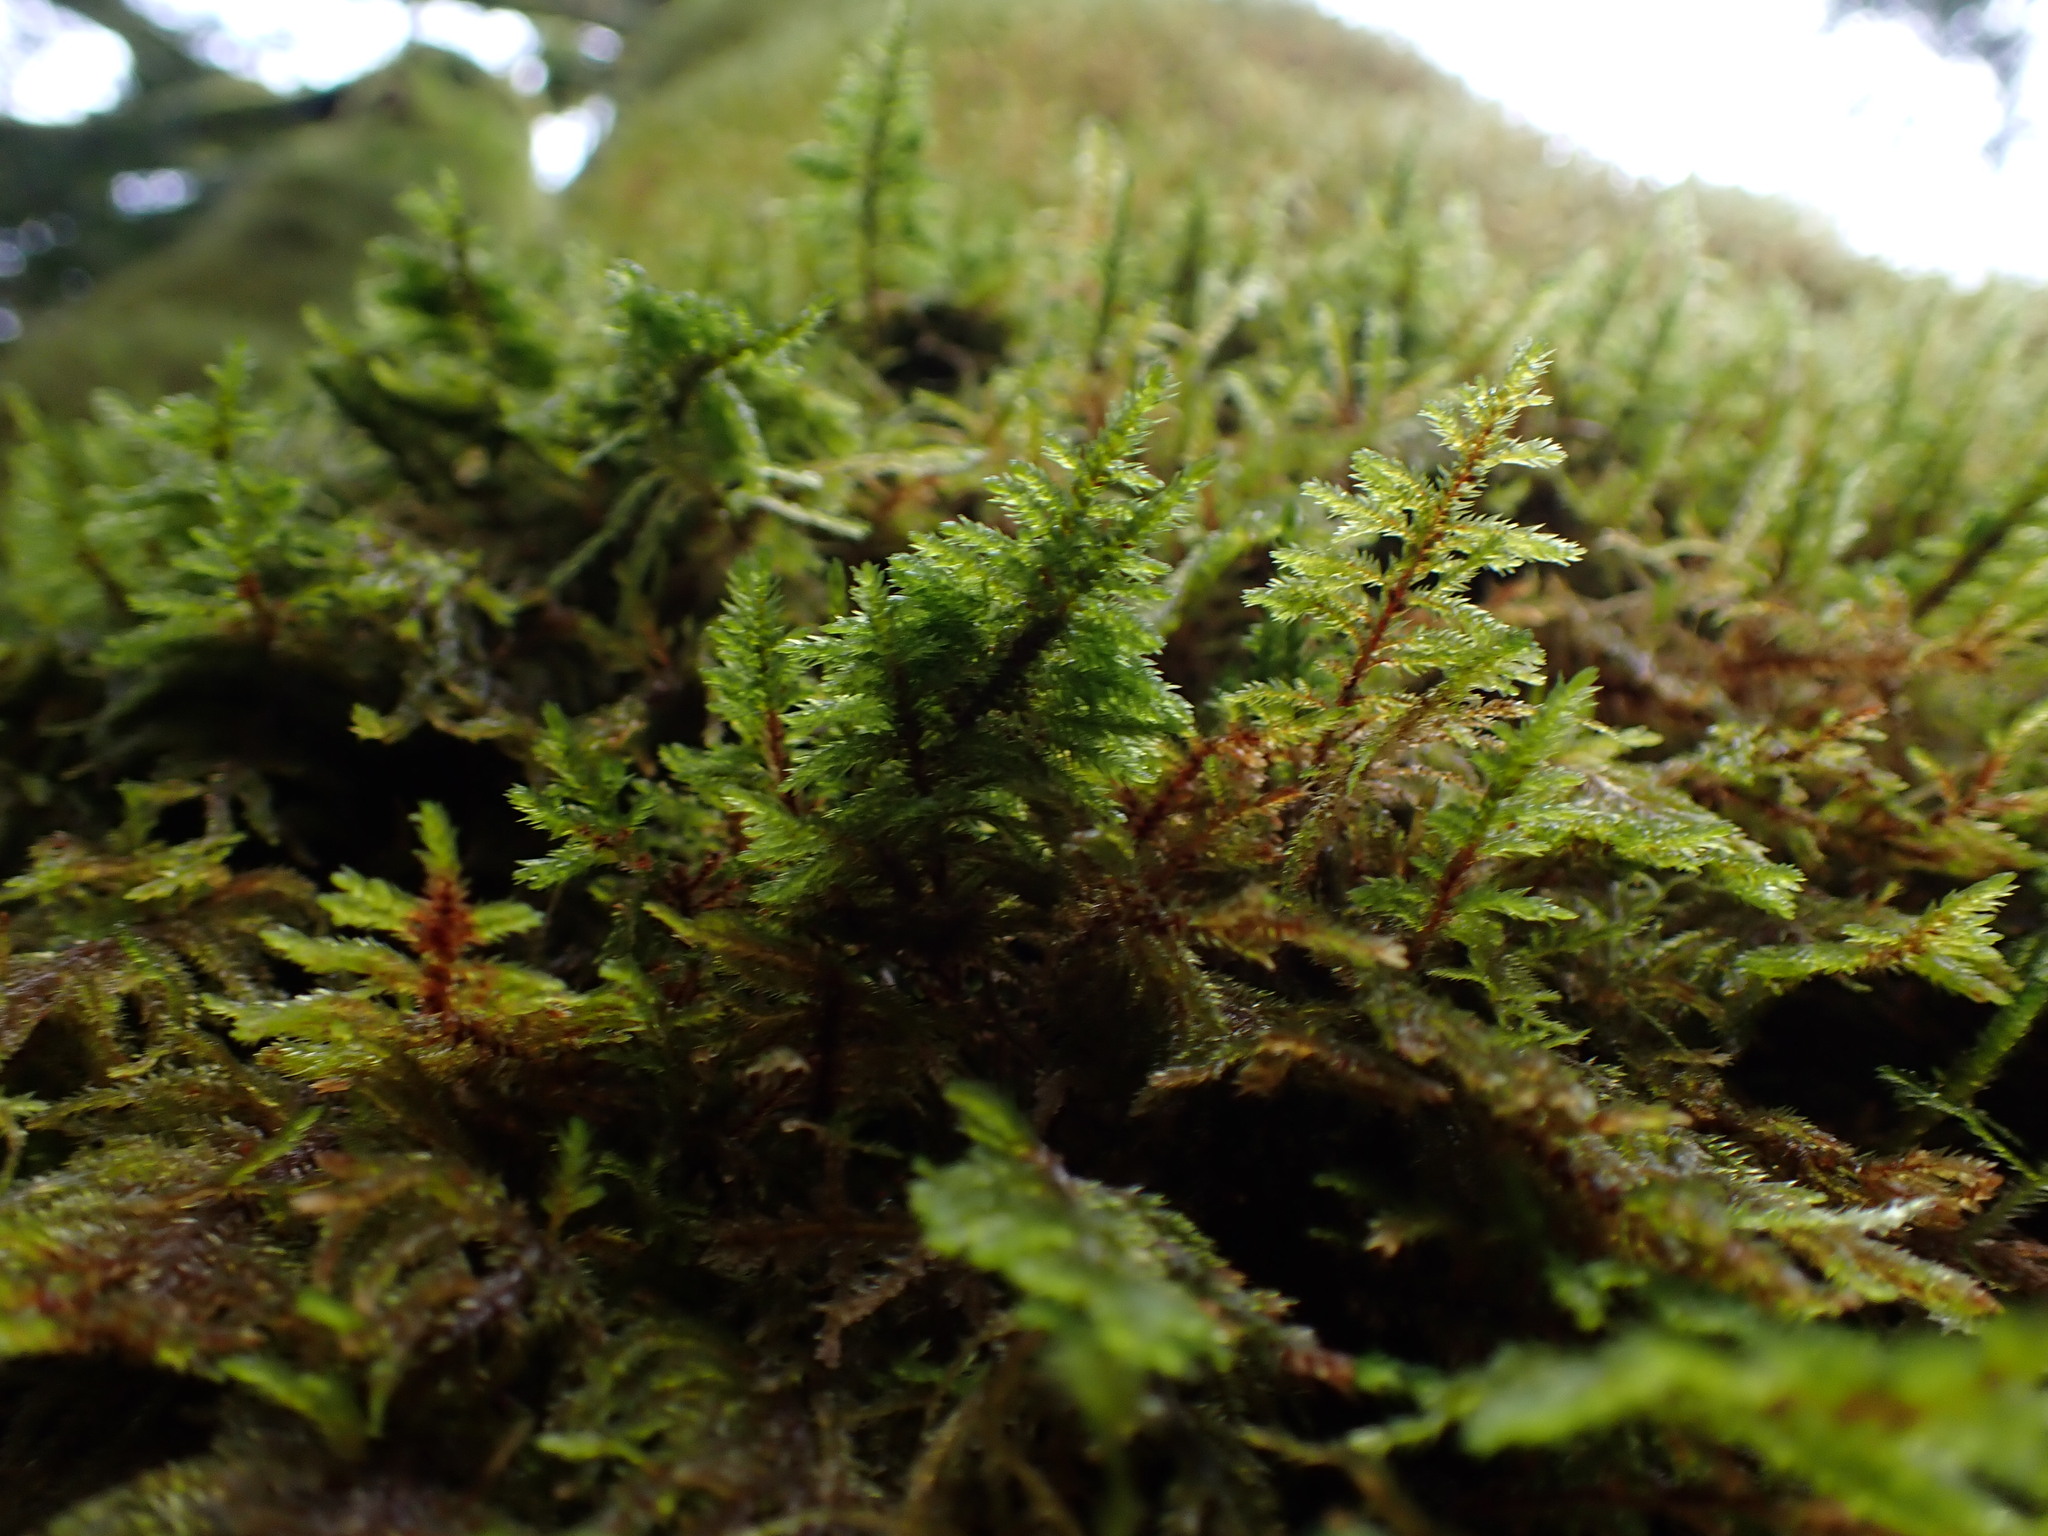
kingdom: Plantae
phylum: Bryophyta
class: Bryopsida
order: Hypnales
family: Cryphaeaceae
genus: Dendroalsia
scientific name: Dendroalsia abietina
